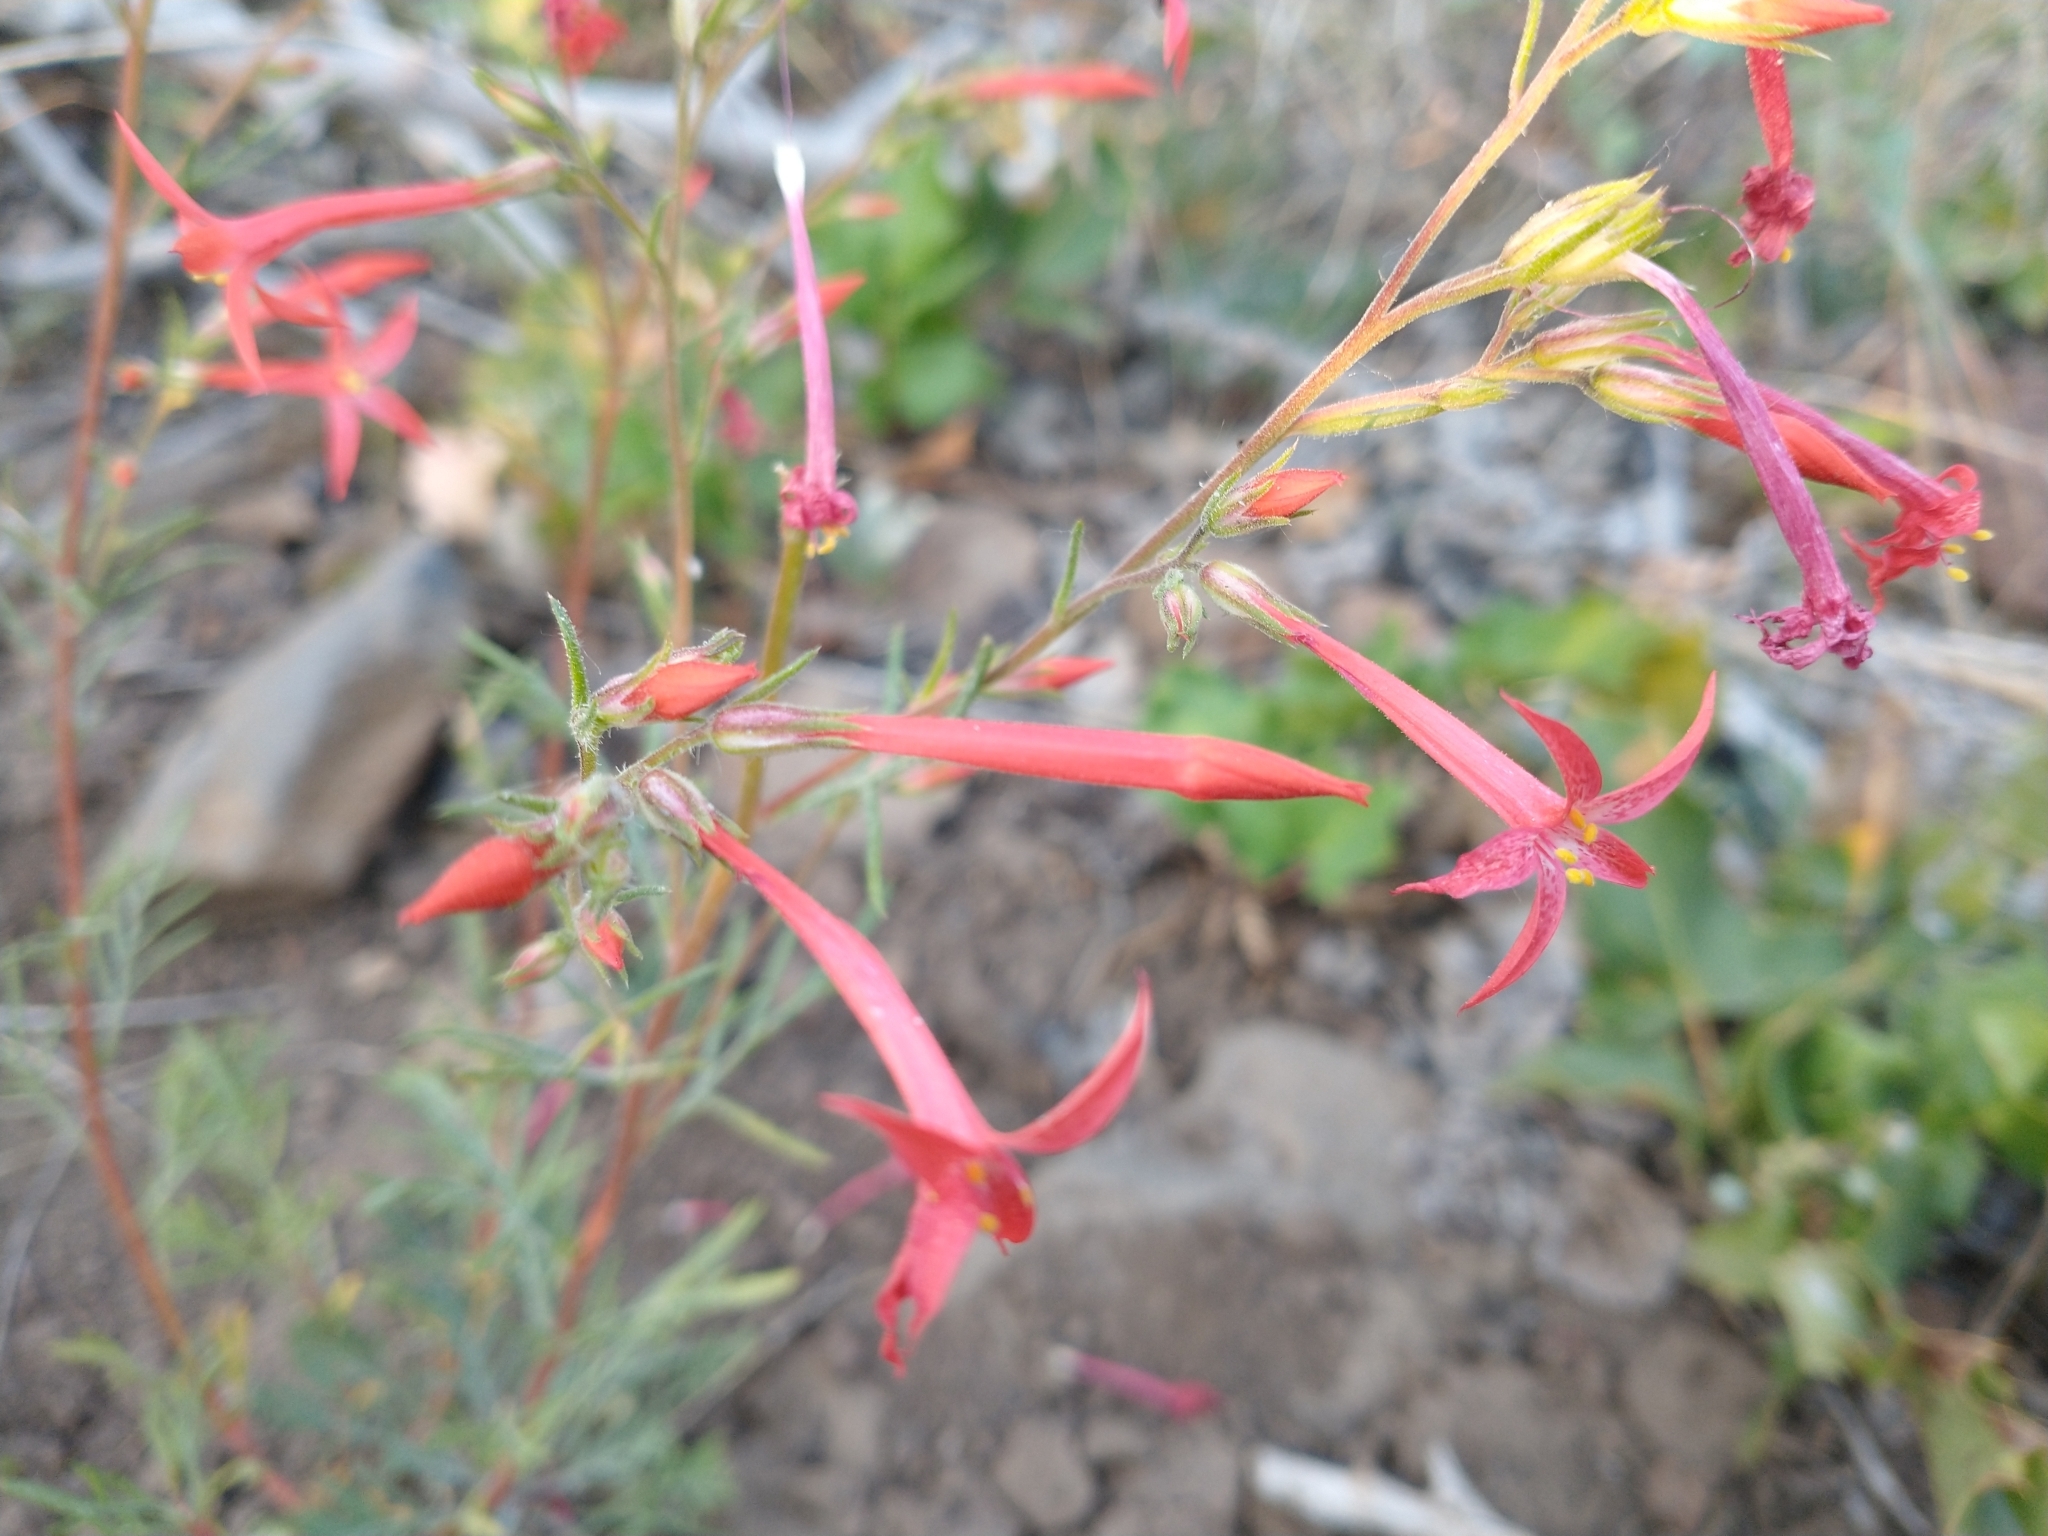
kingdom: Plantae
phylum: Tracheophyta
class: Magnoliopsida
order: Ericales
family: Polemoniaceae
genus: Ipomopsis
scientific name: Ipomopsis aggregata
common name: Scarlet gilia
